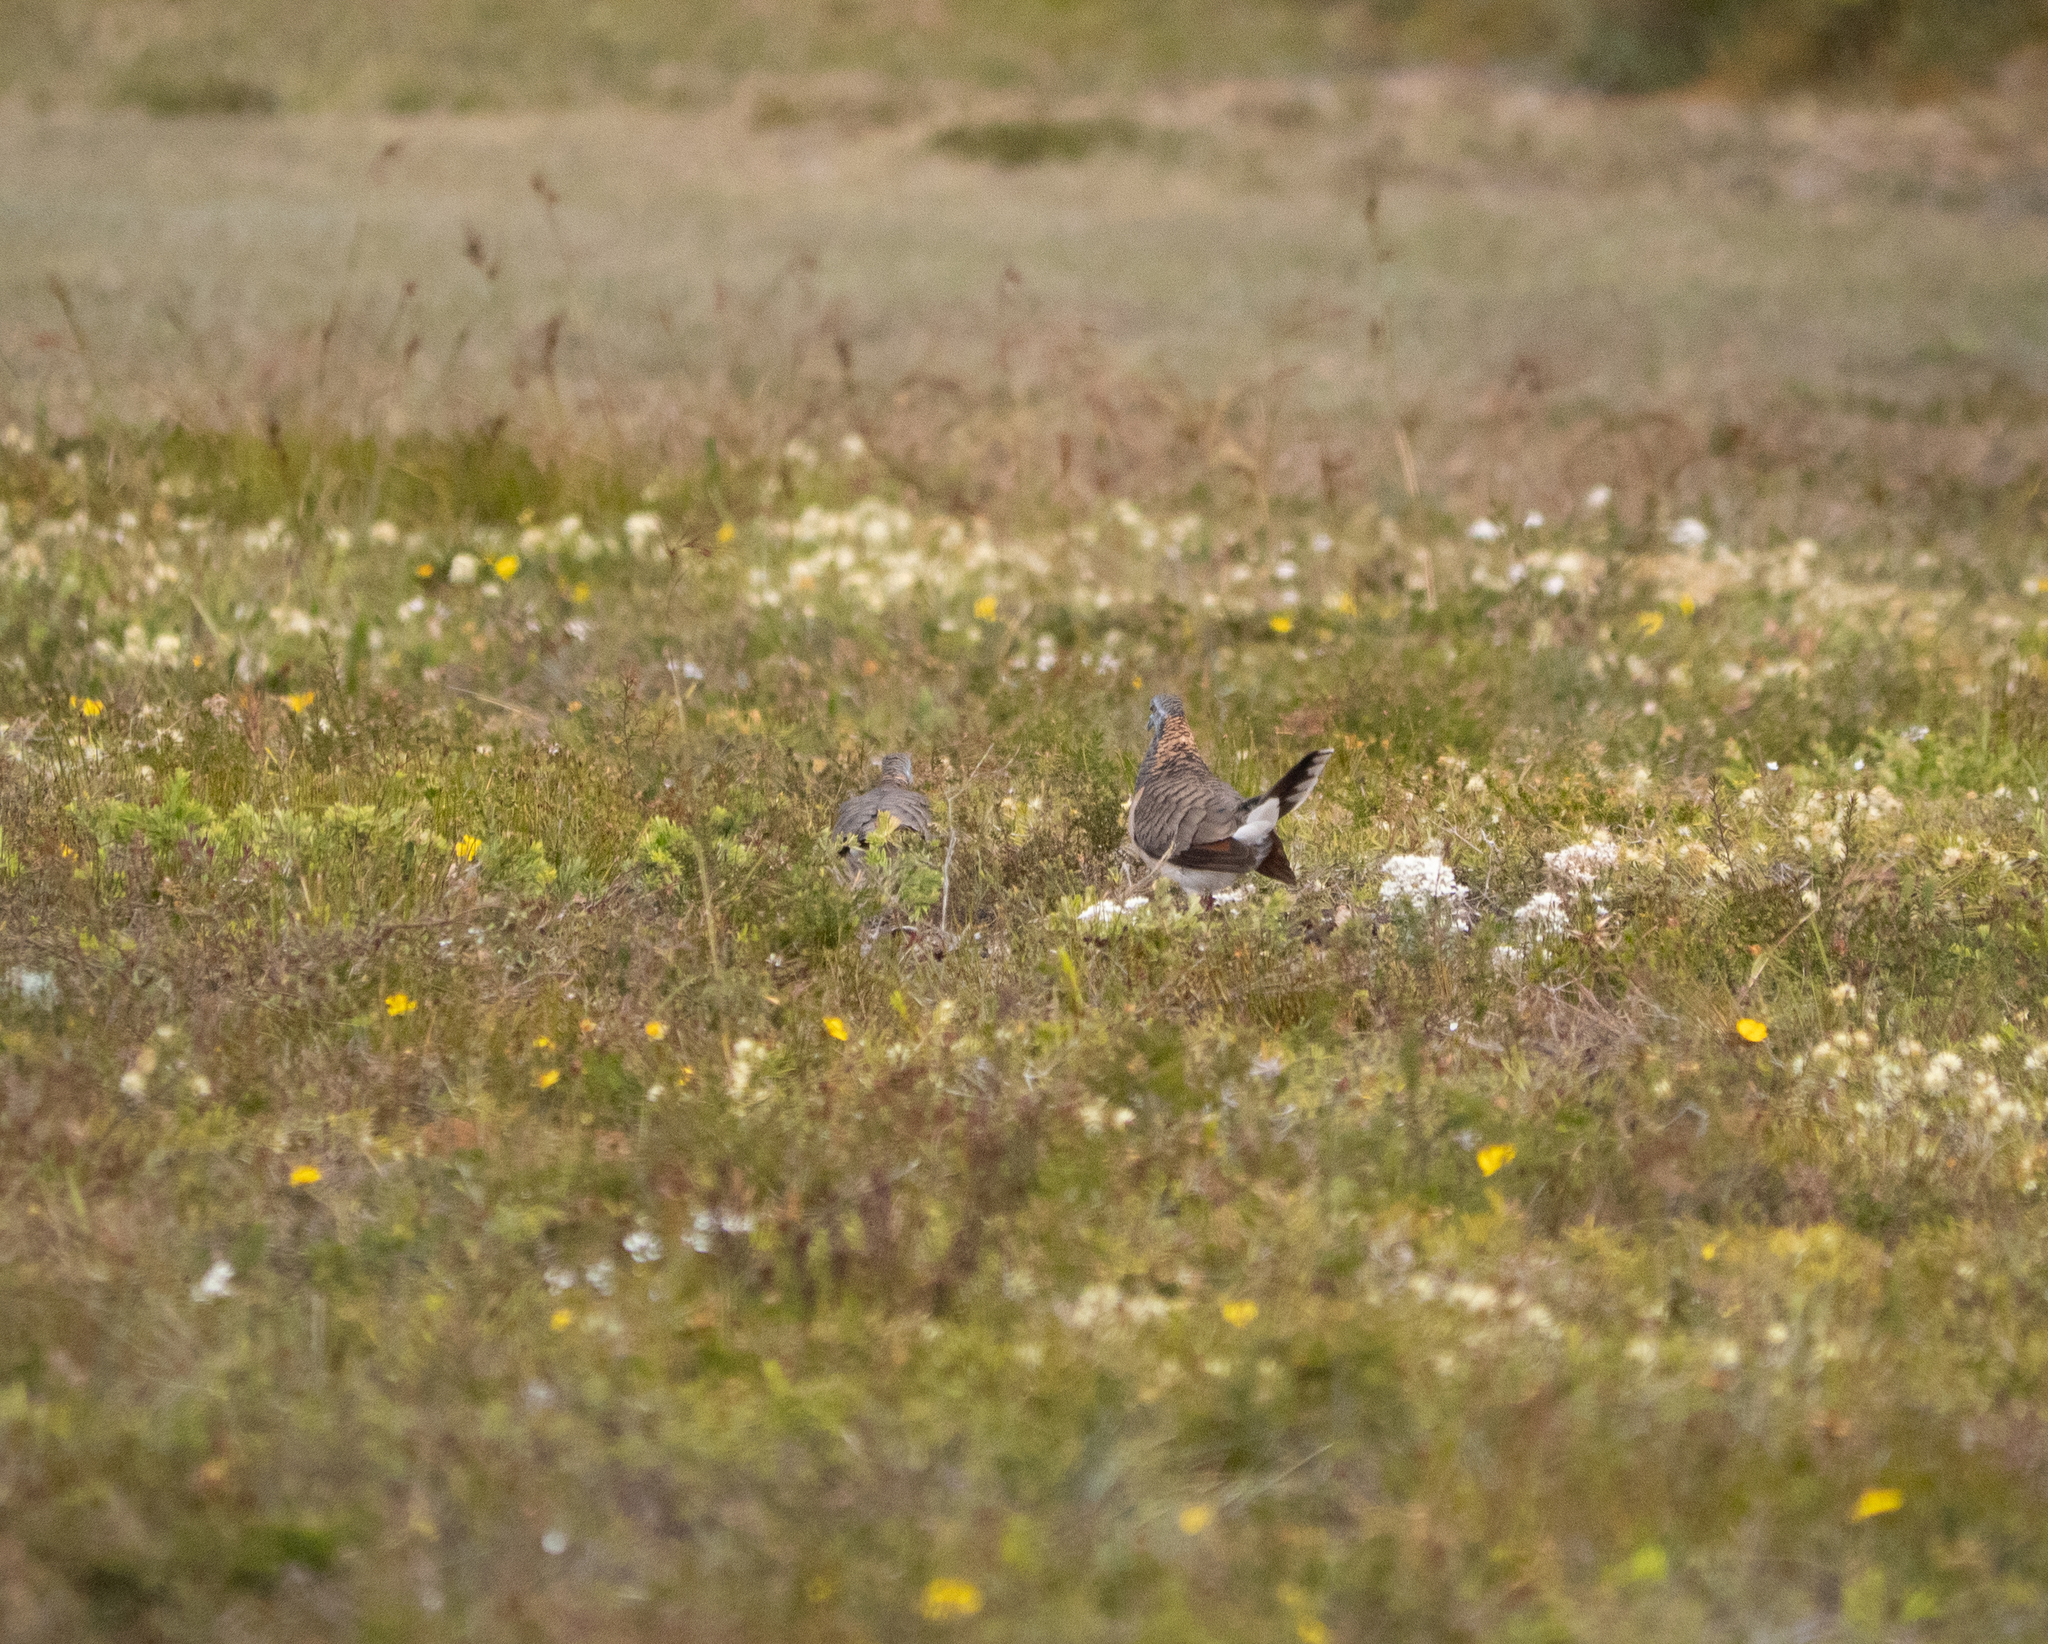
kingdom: Animalia
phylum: Chordata
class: Aves
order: Columbiformes
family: Columbidae
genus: Geopelia
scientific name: Geopelia humeralis
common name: Bar-shouldered dove
